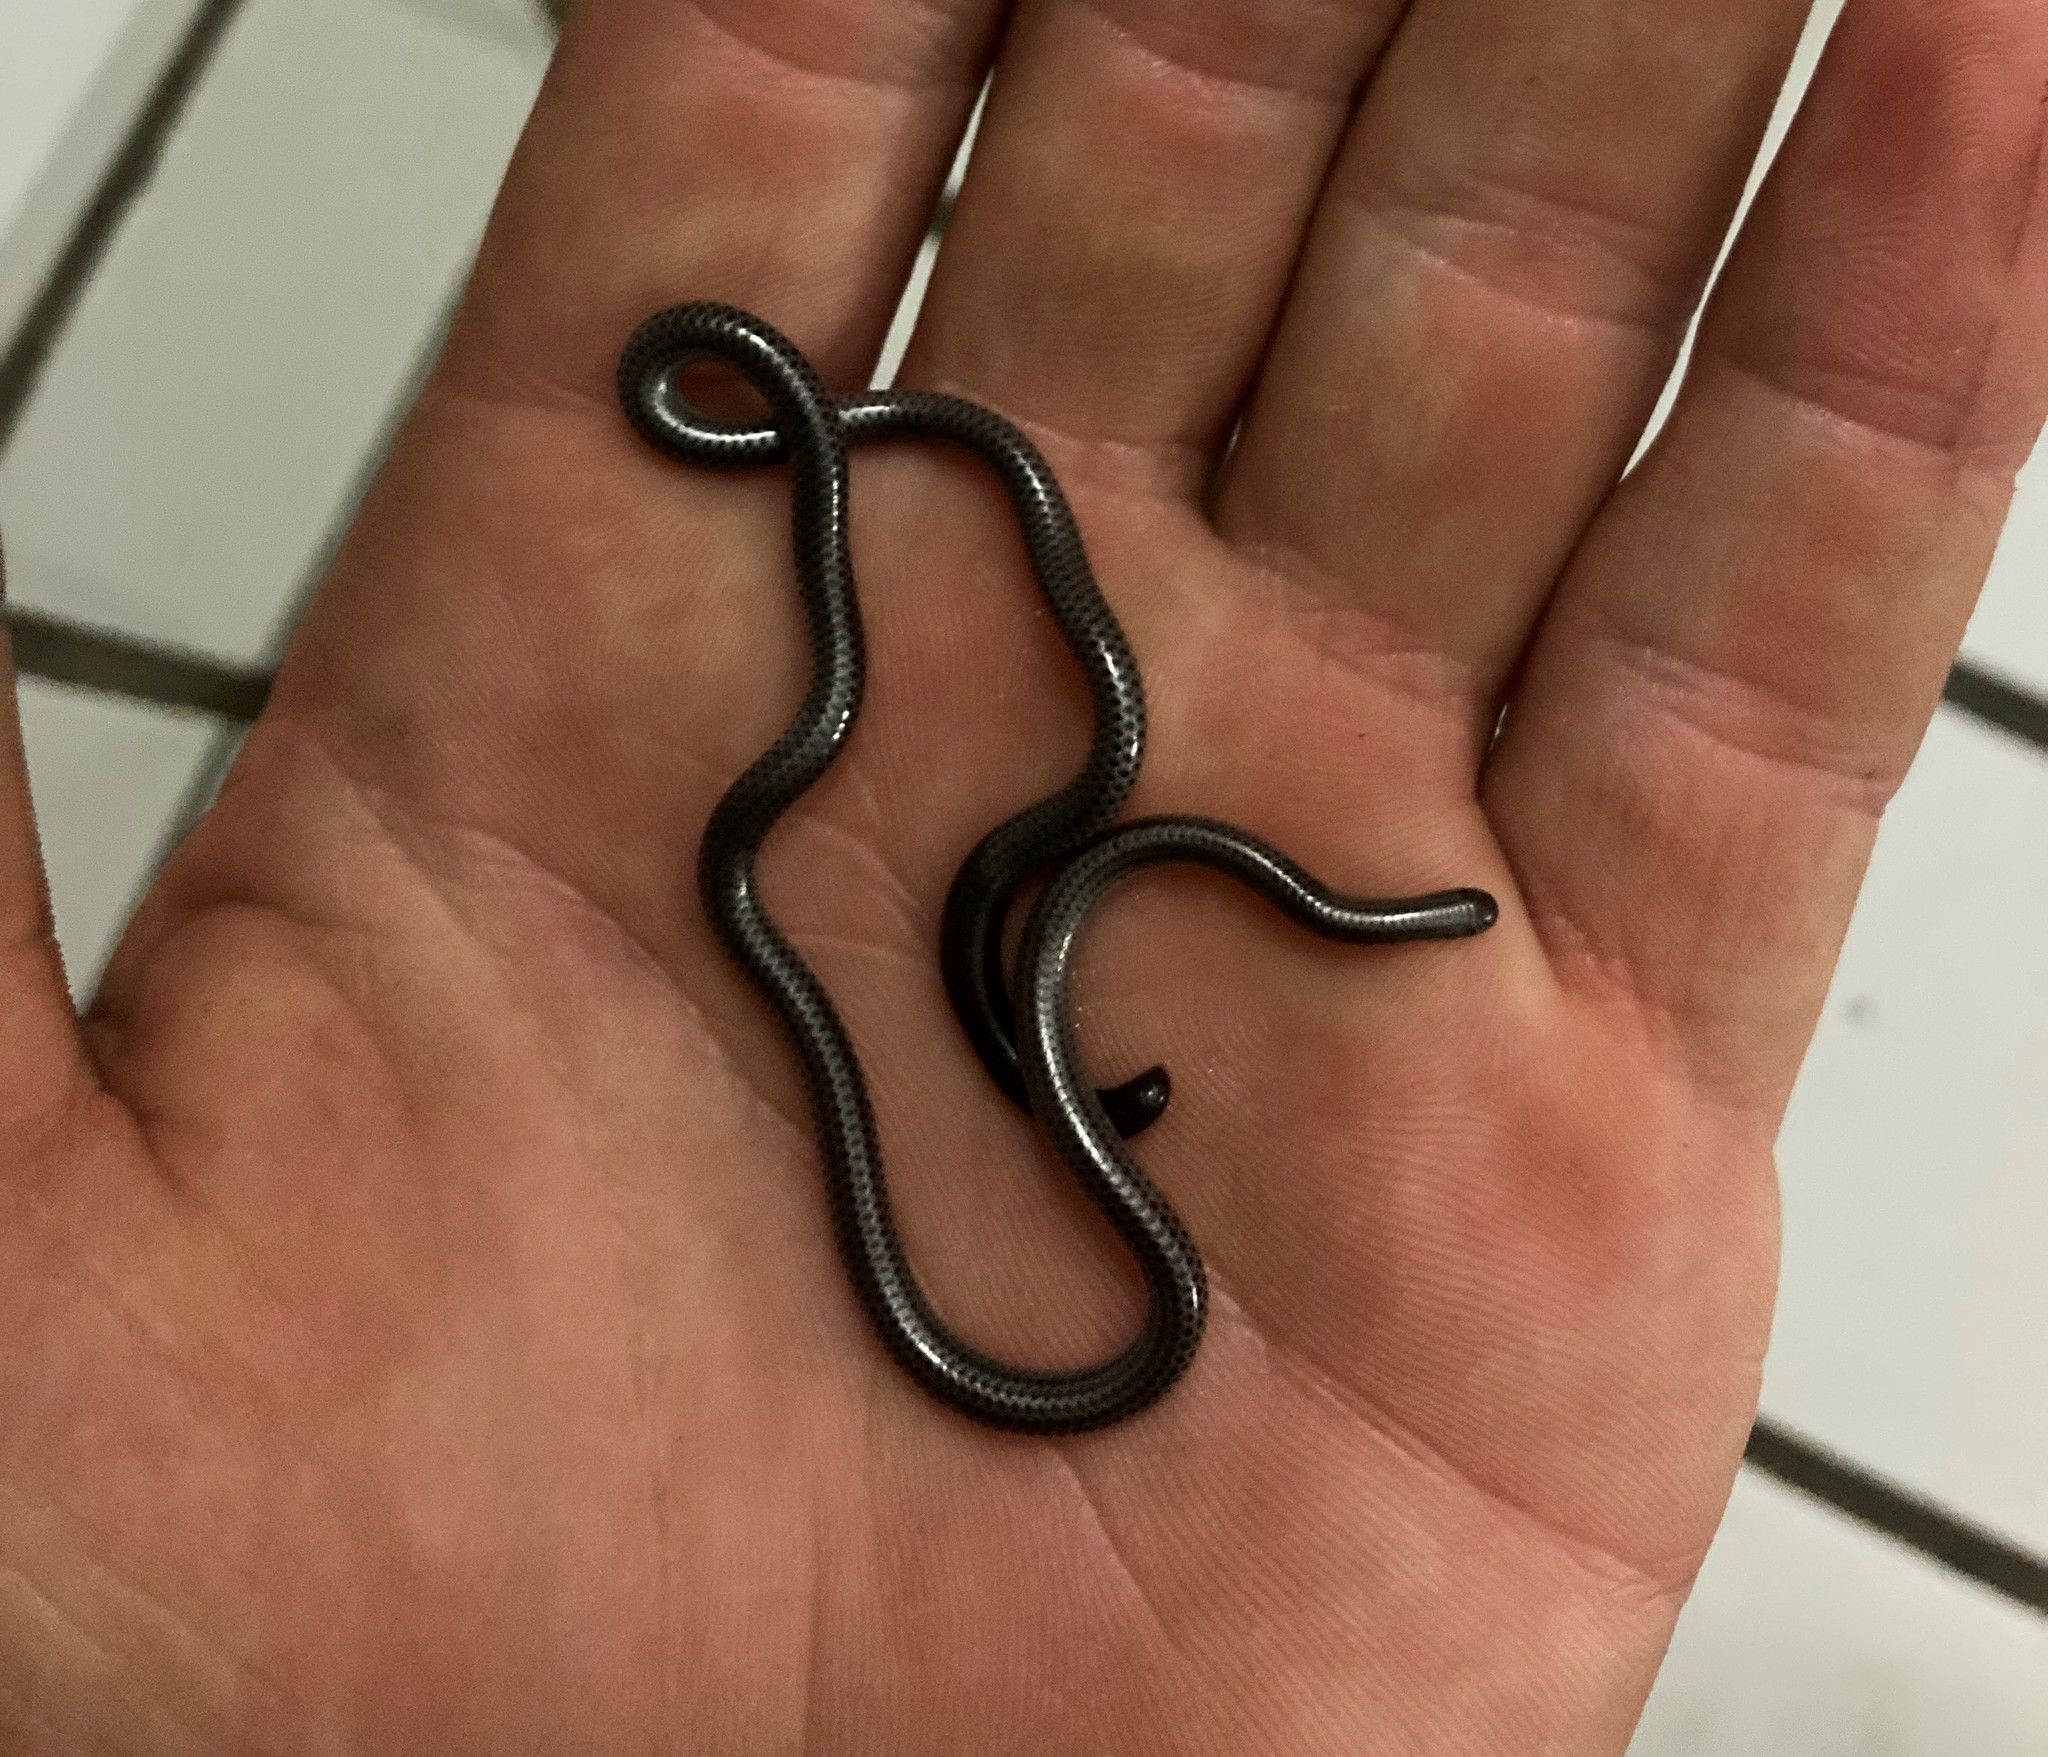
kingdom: Animalia
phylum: Chordata
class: Squamata
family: Leptotyphlopidae
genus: Leptotyphlops
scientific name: Leptotyphlops incognitus
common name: Incognito thread snake
